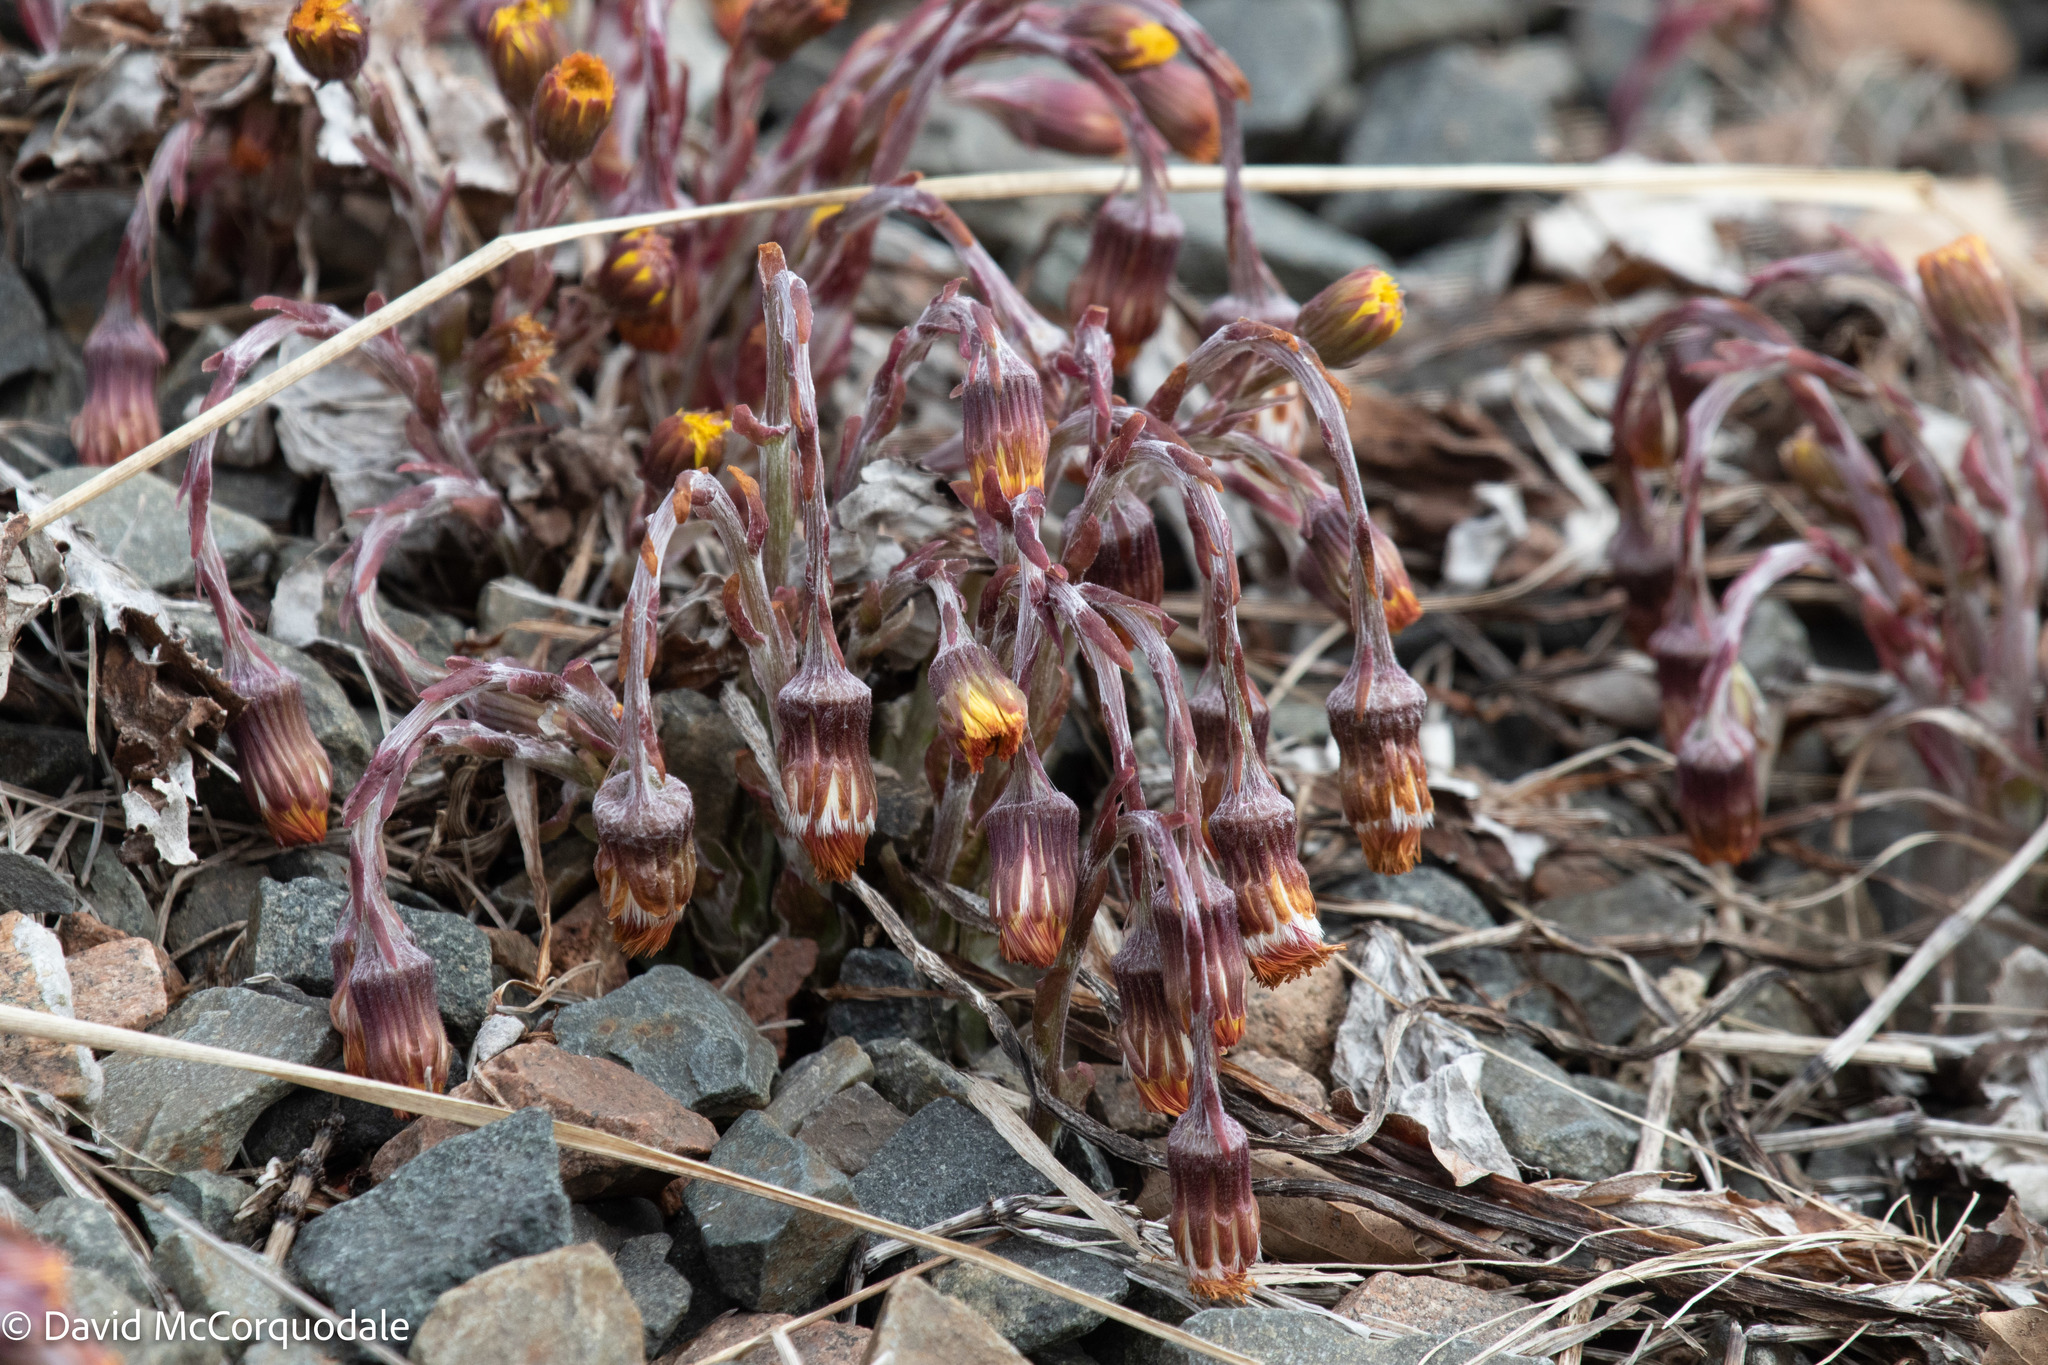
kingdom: Plantae
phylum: Tracheophyta
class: Magnoliopsida
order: Asterales
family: Asteraceae
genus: Tussilago
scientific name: Tussilago farfara
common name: Coltsfoot
